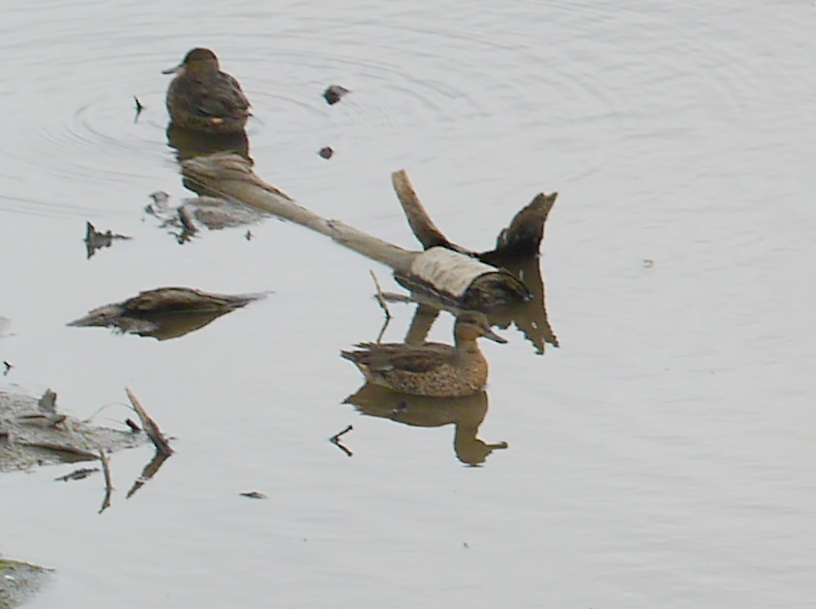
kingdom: Animalia
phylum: Chordata
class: Aves
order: Anseriformes
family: Anatidae
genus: Anas
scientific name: Anas crecca
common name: Eurasian teal
